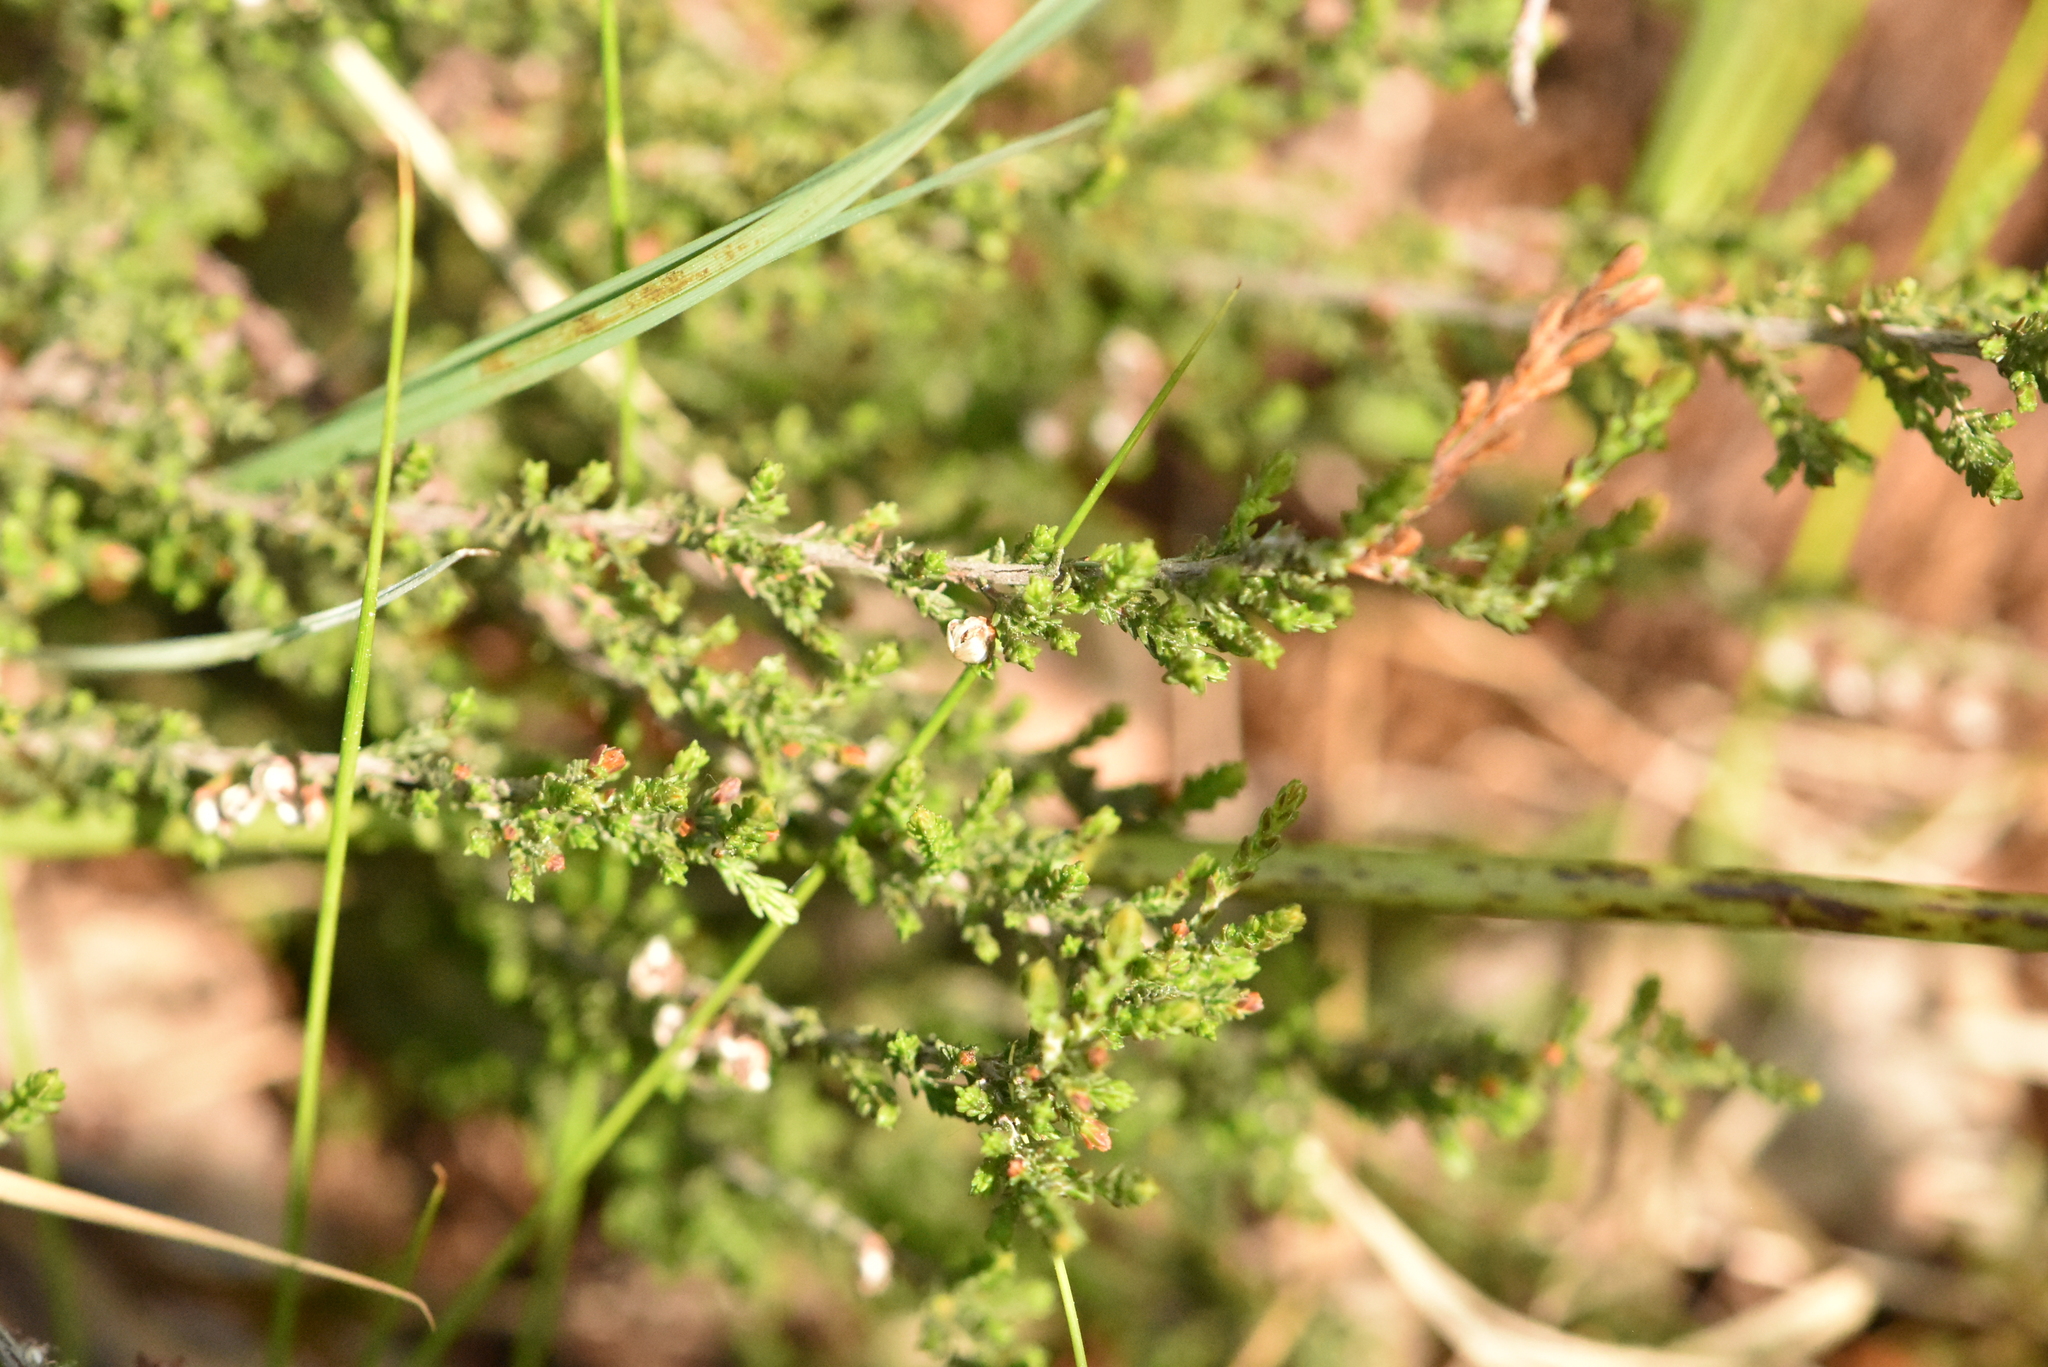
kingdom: Plantae
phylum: Tracheophyta
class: Magnoliopsida
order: Ericales
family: Ericaceae
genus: Calluna
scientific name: Calluna vulgaris
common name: Heather
